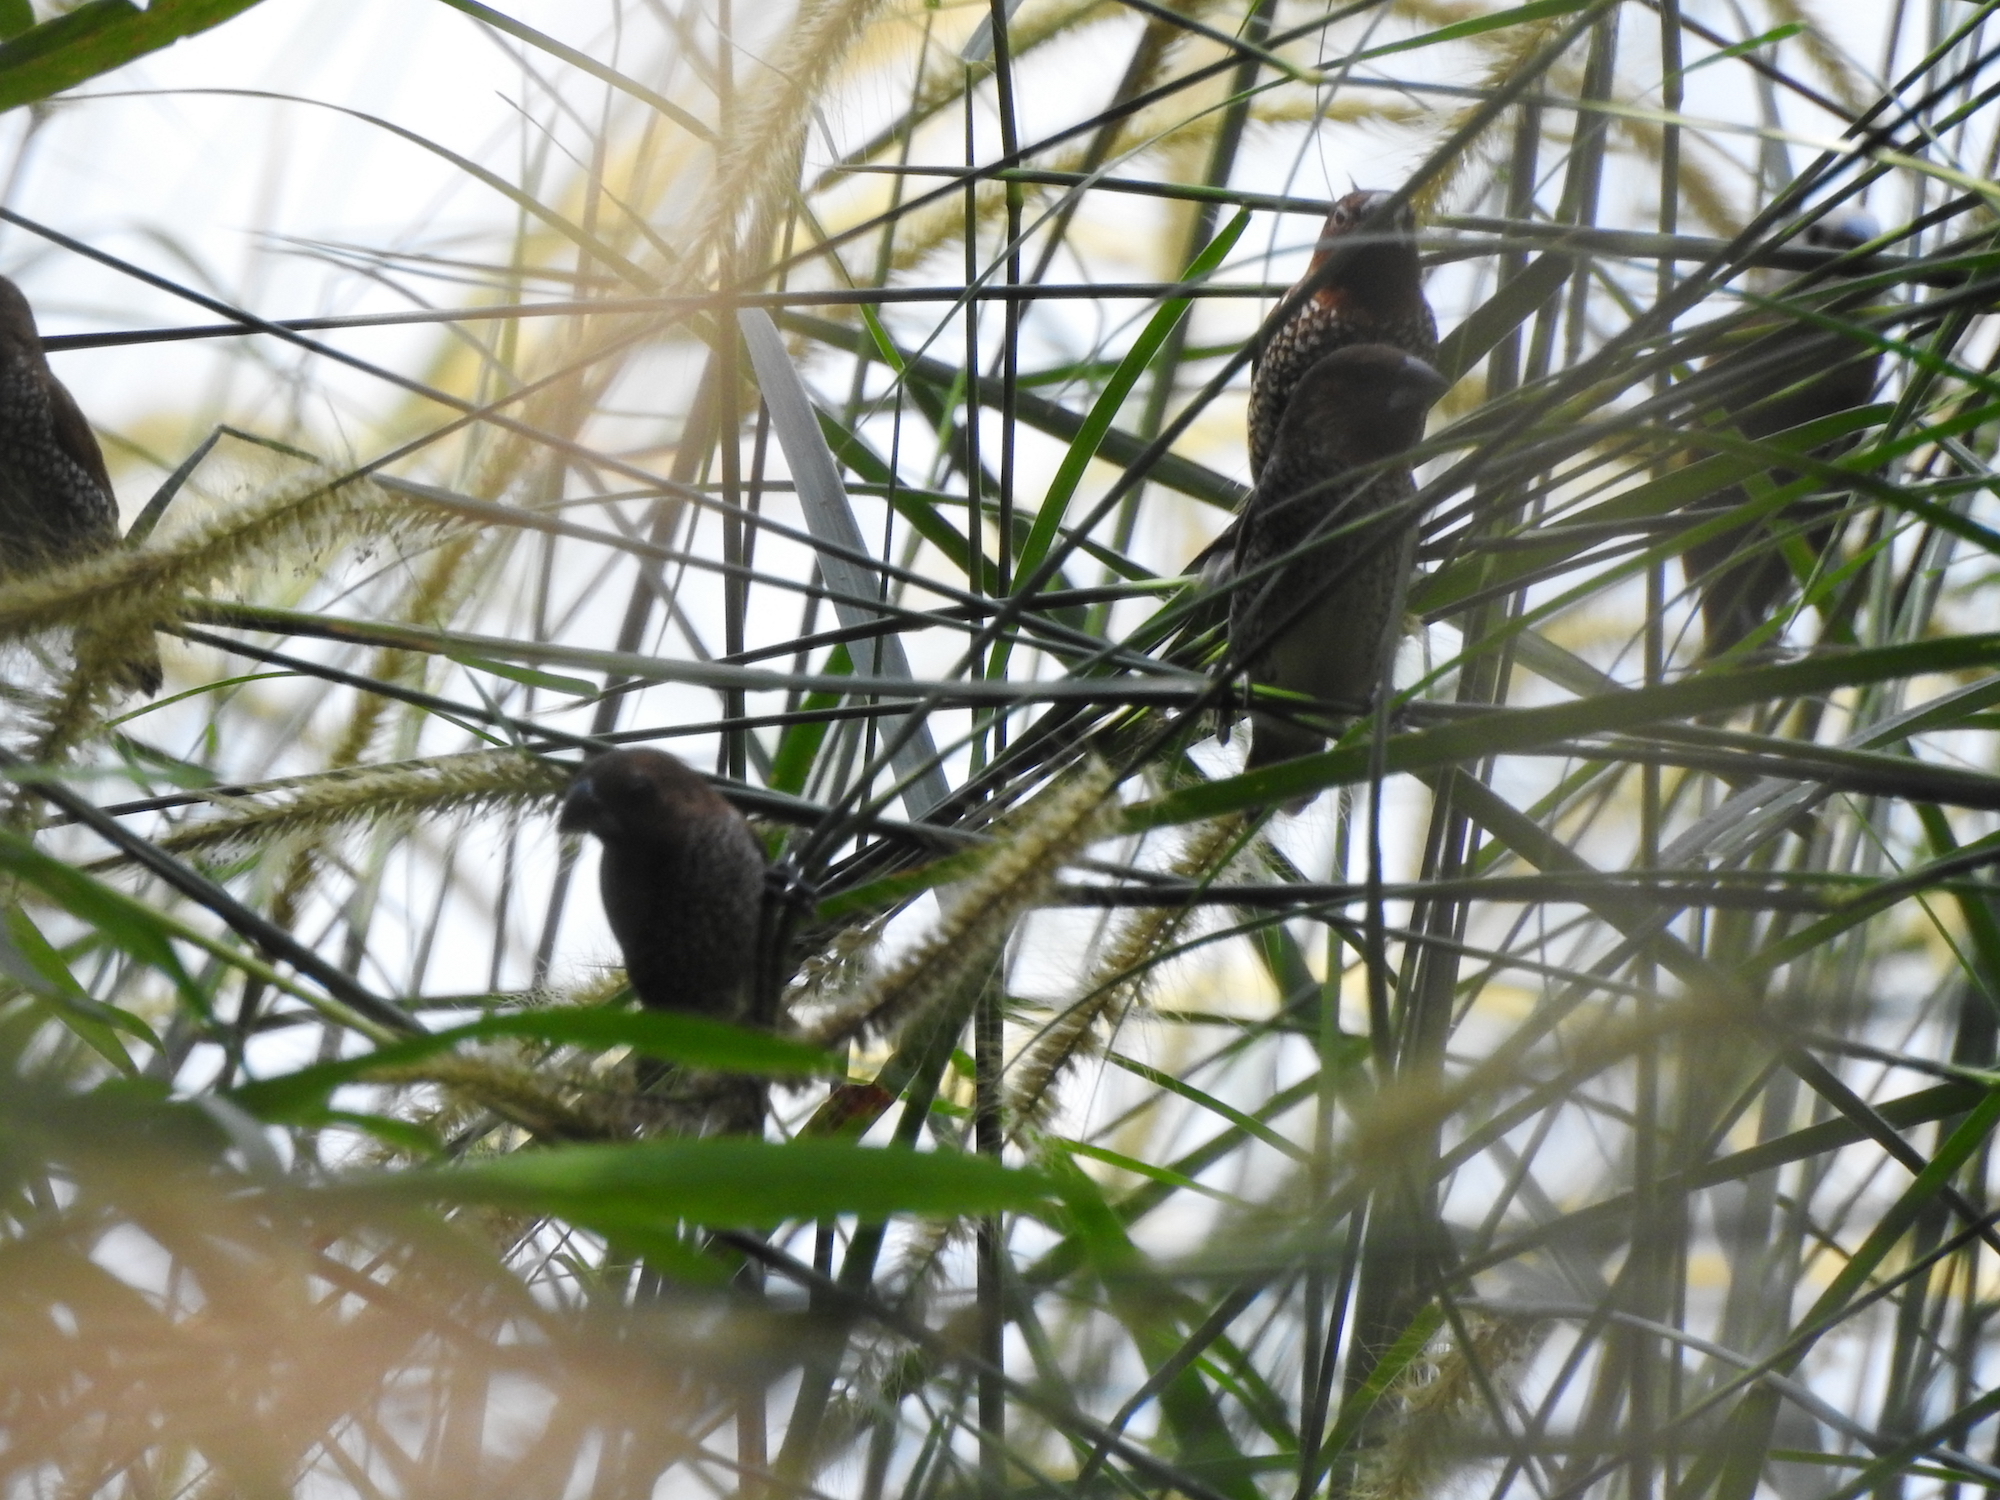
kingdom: Animalia
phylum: Chordata
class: Aves
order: Passeriformes
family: Estrildidae
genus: Lonchura
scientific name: Lonchura punctulata
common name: Scaly-breasted munia
